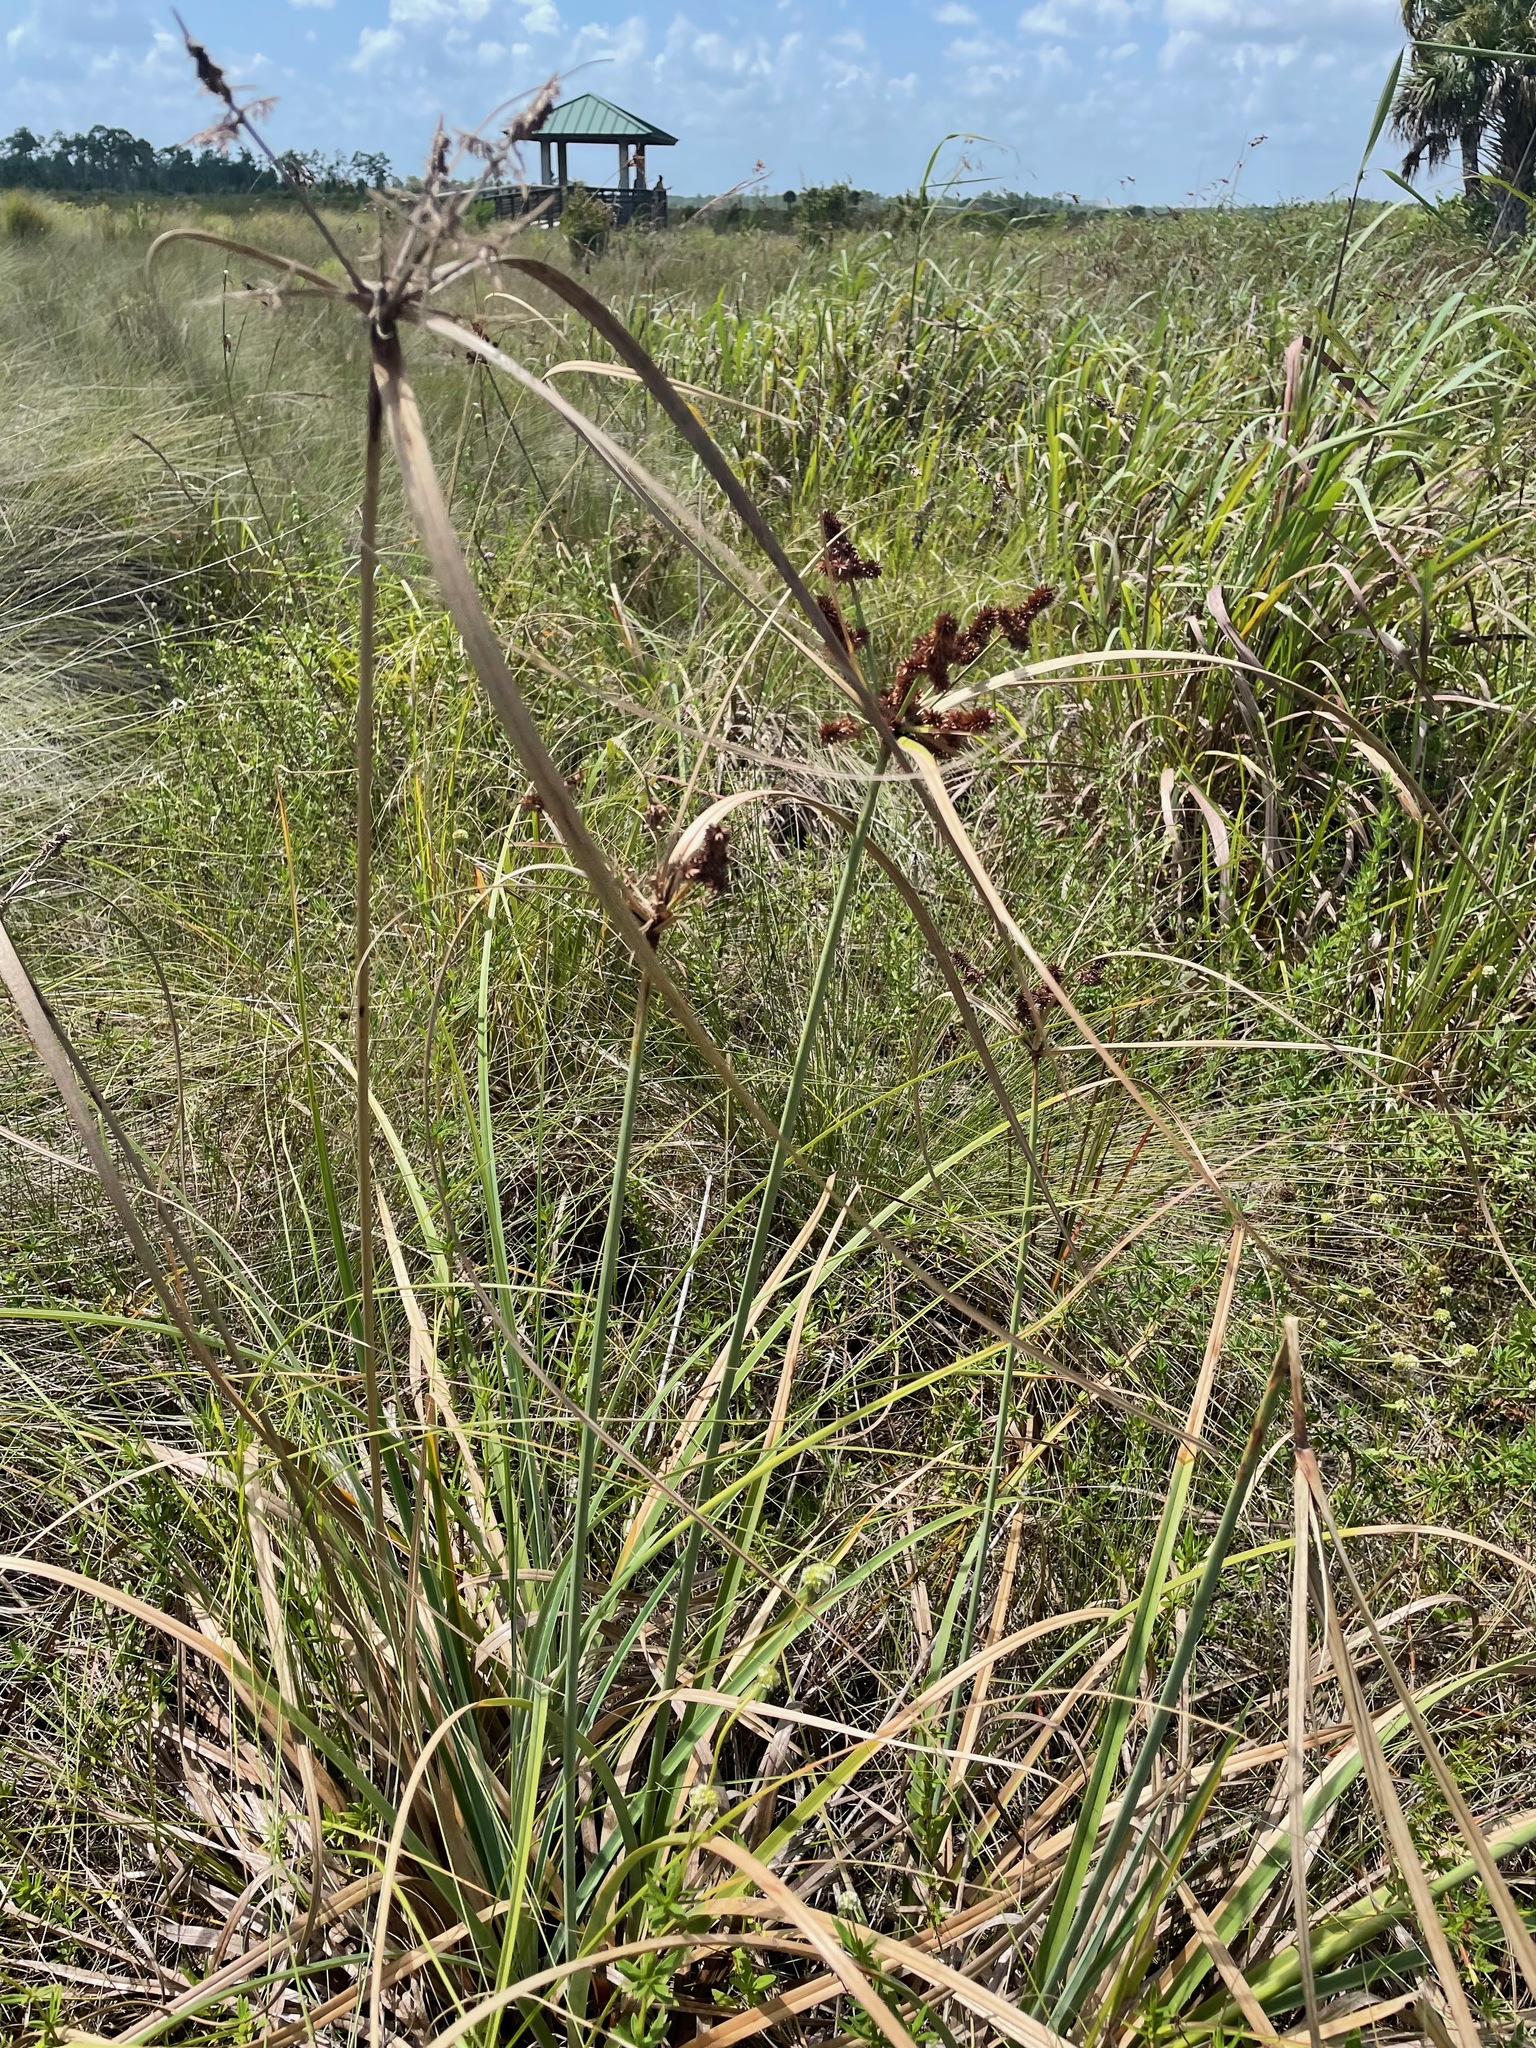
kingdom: Plantae
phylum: Tracheophyta
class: Liliopsida
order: Poales
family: Cyperaceae
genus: Cyperus
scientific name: Cyperus ligularis
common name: Swamp flat sedge
